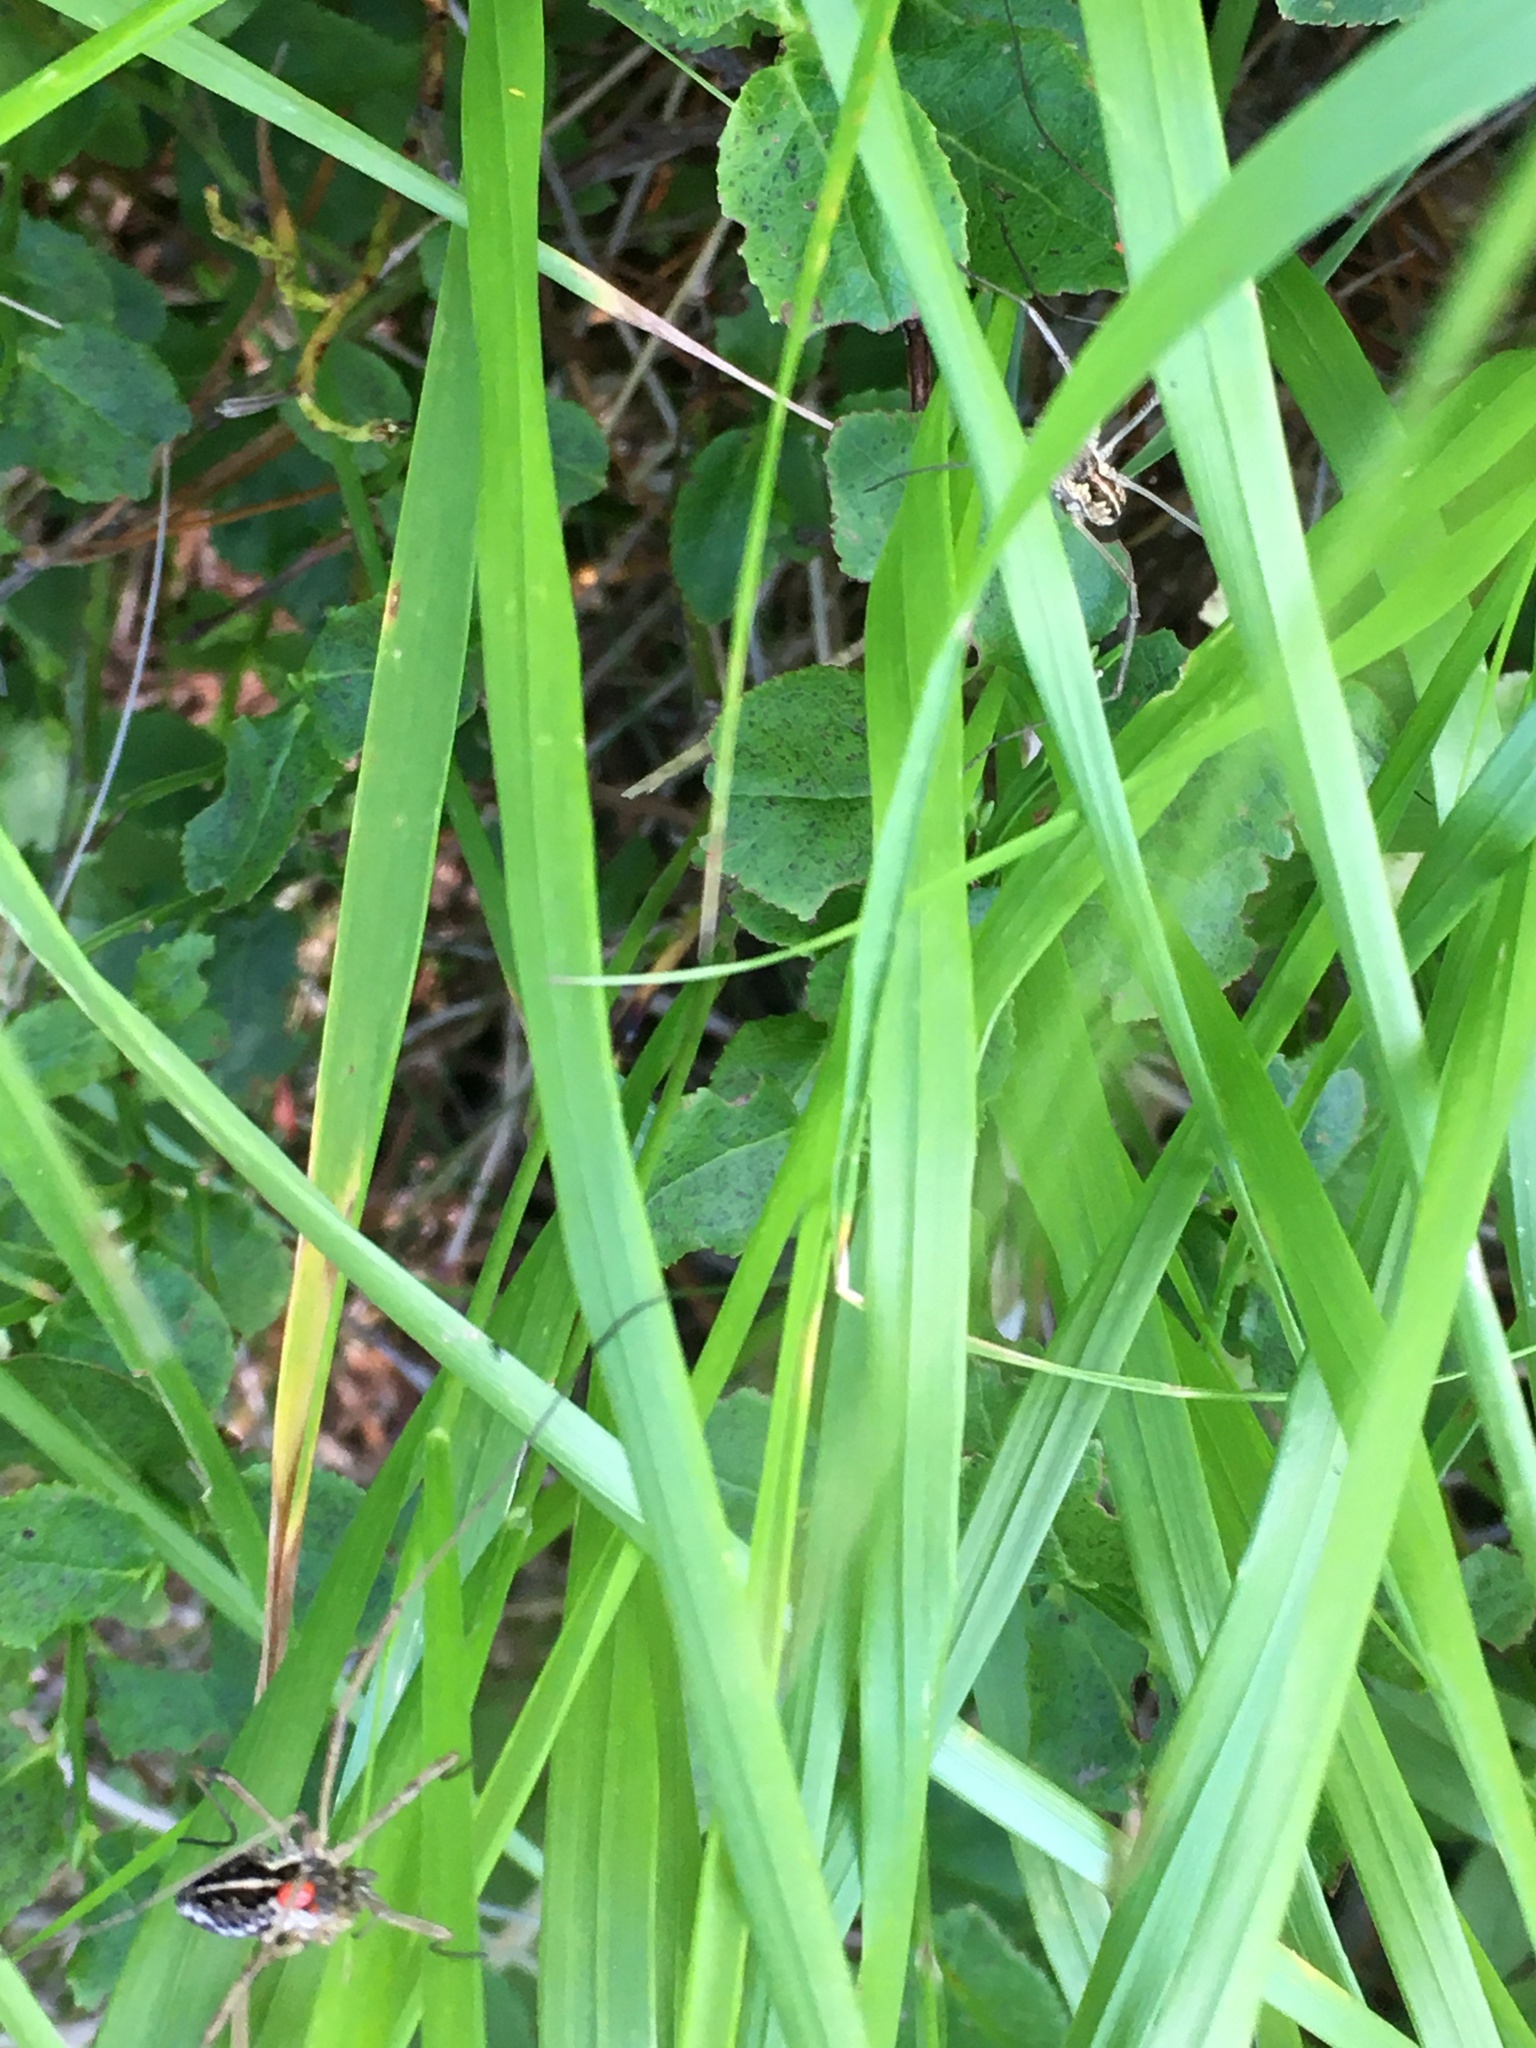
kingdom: Animalia
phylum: Arthropoda
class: Arachnida
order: Opiliones
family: Phalangiidae
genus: Mitopus
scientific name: Mitopus morio
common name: Saddleback harvestman
